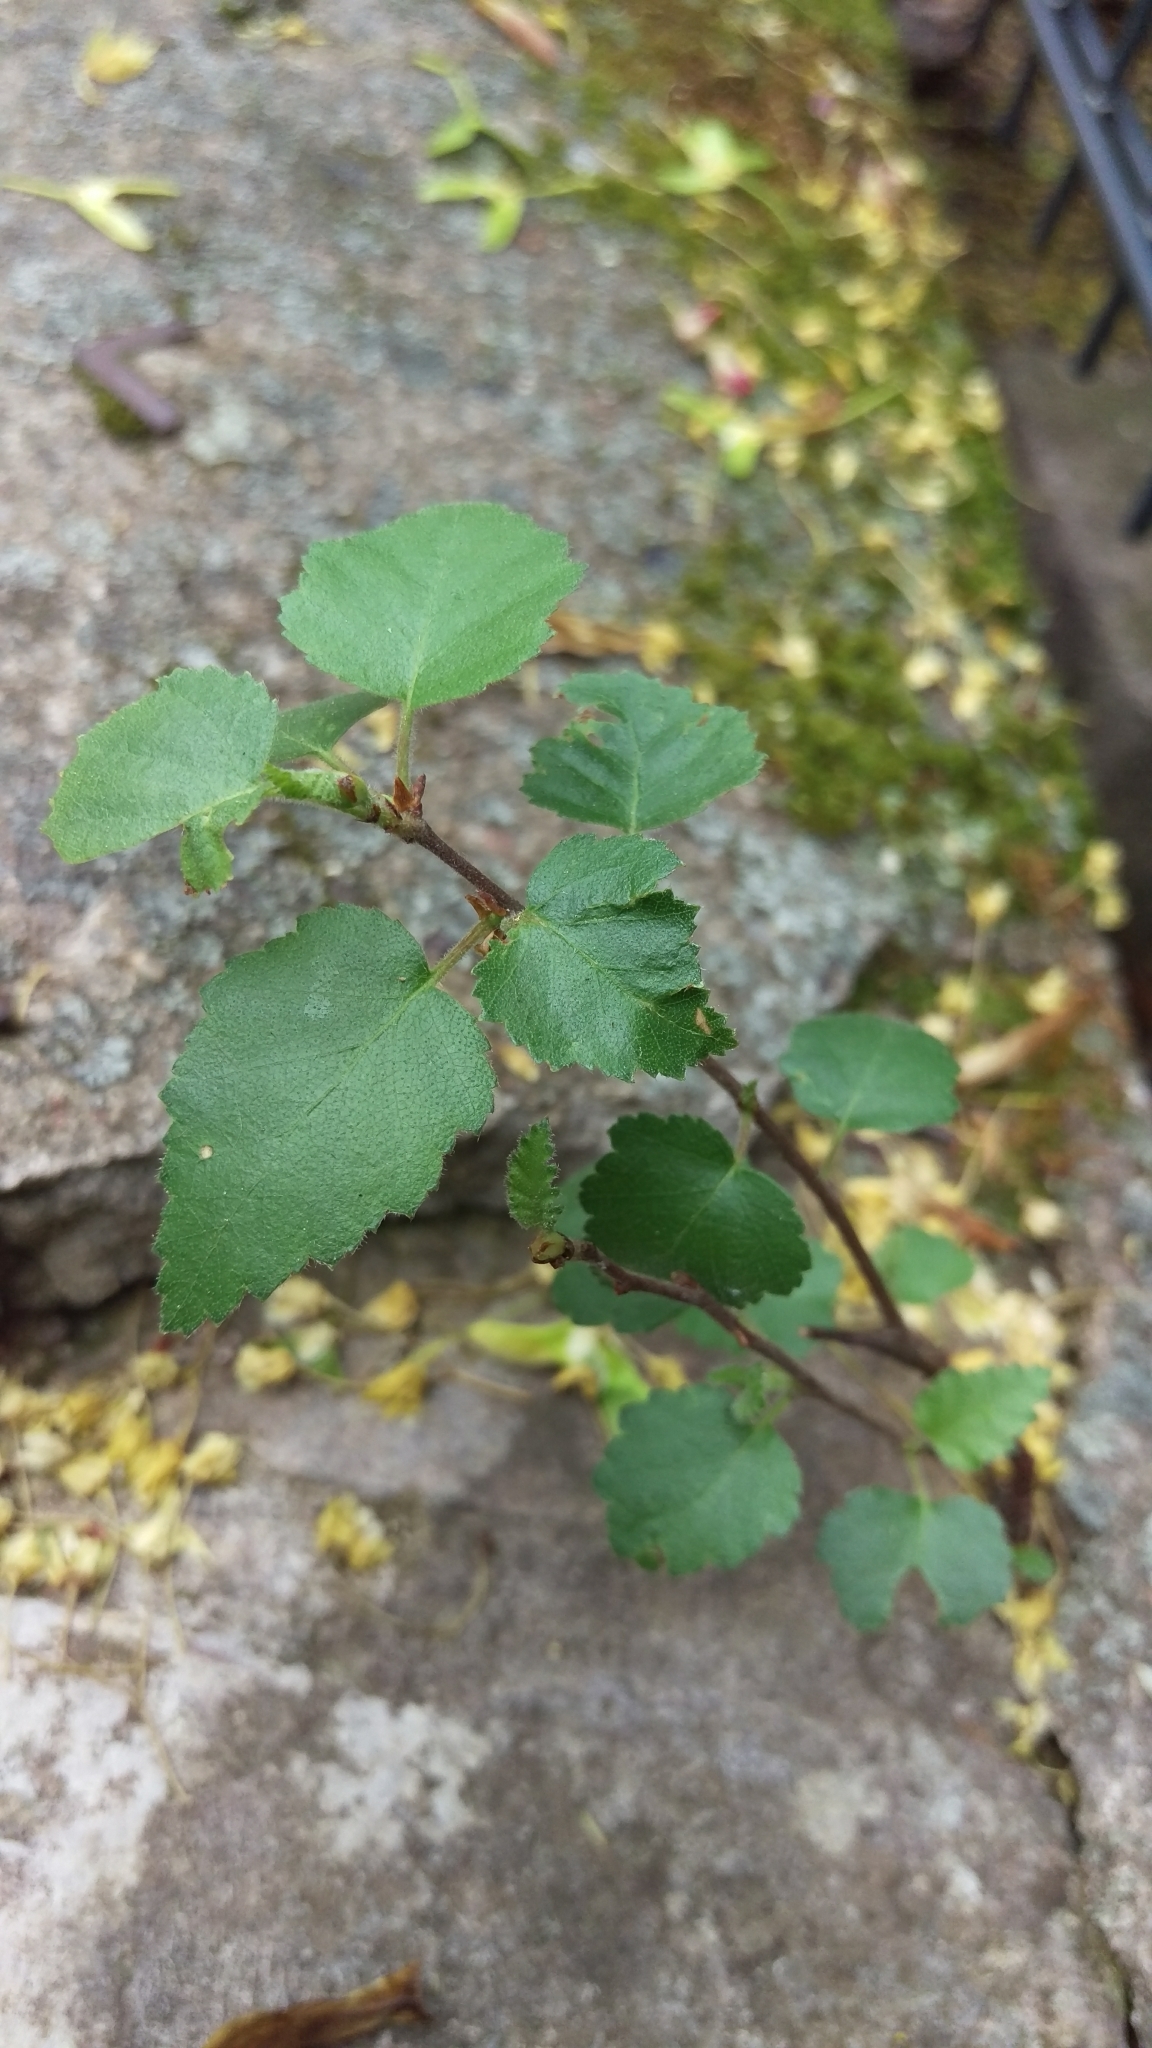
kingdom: Plantae
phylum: Tracheophyta
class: Magnoliopsida
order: Fagales
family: Betulaceae
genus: Betula
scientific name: Betula pendula
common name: Silver birch
